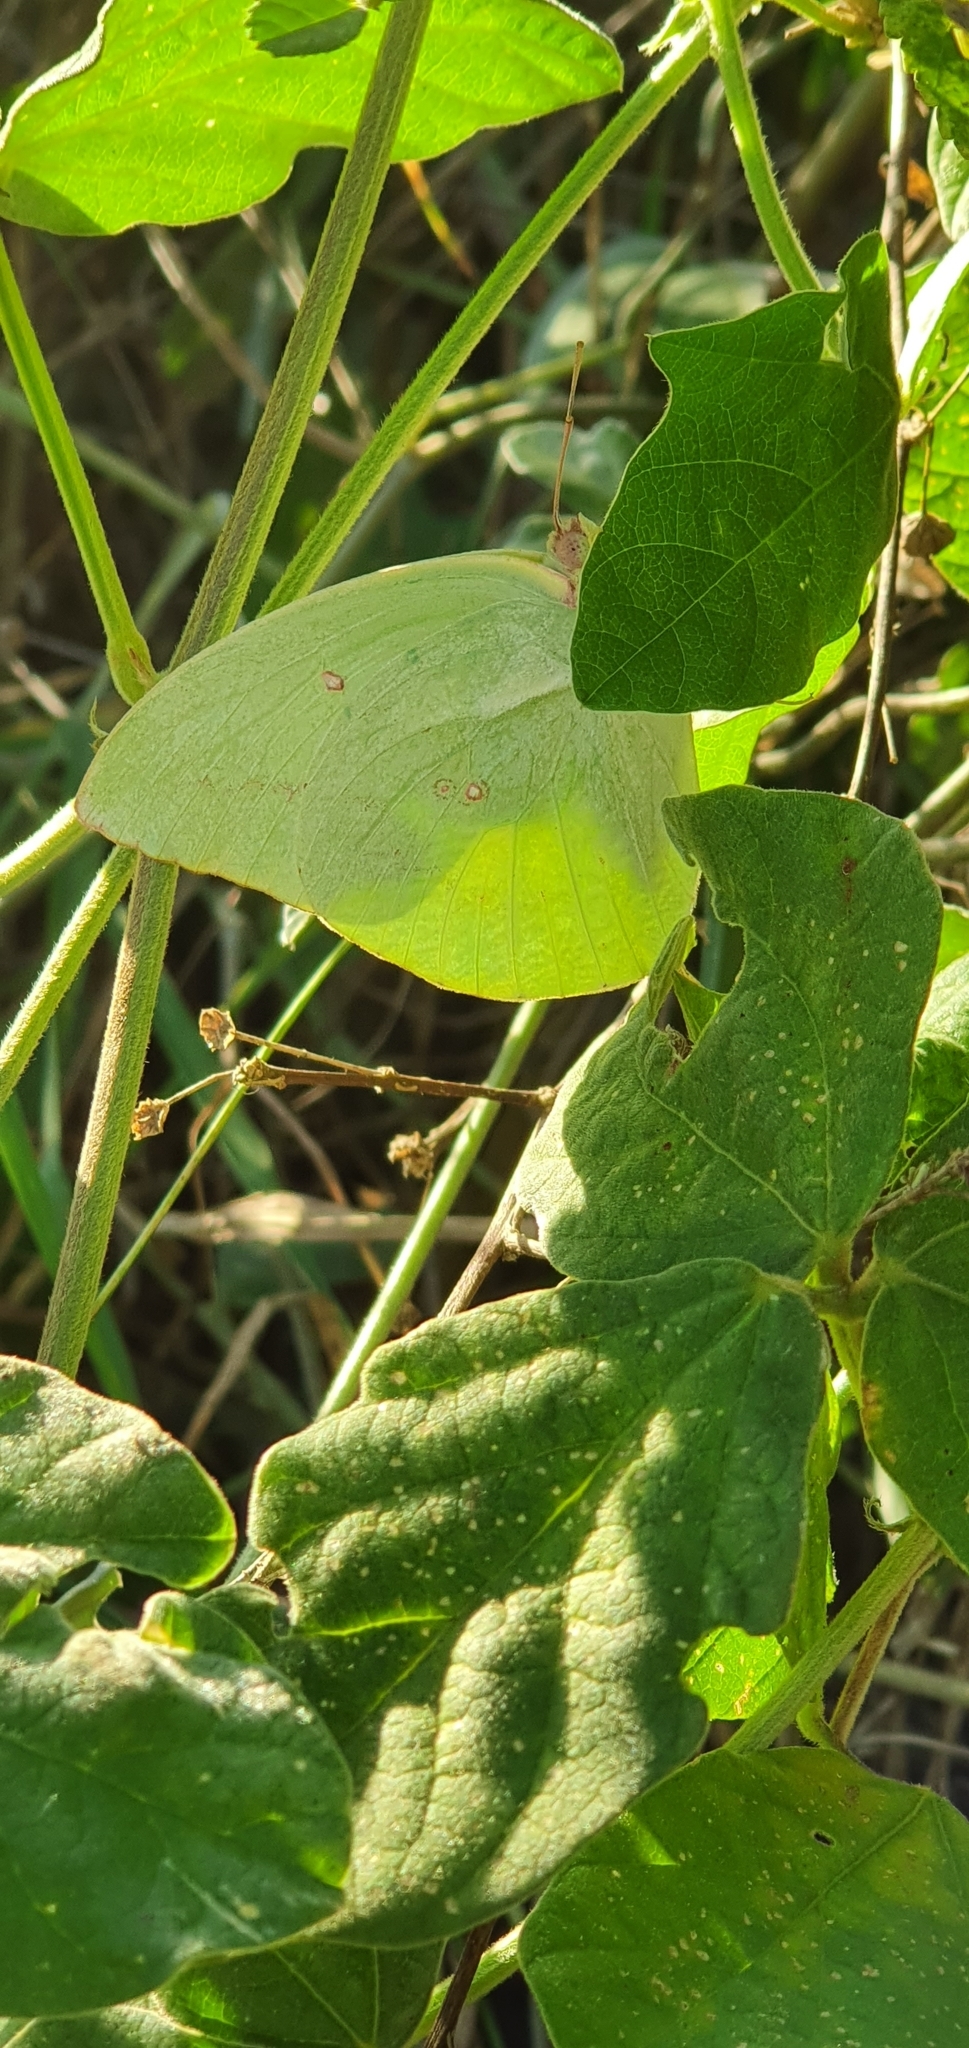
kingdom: Animalia
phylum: Arthropoda
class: Insecta
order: Lepidoptera
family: Pieridae
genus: Catopsilia
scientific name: Catopsilia pomona
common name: Common emigrant
